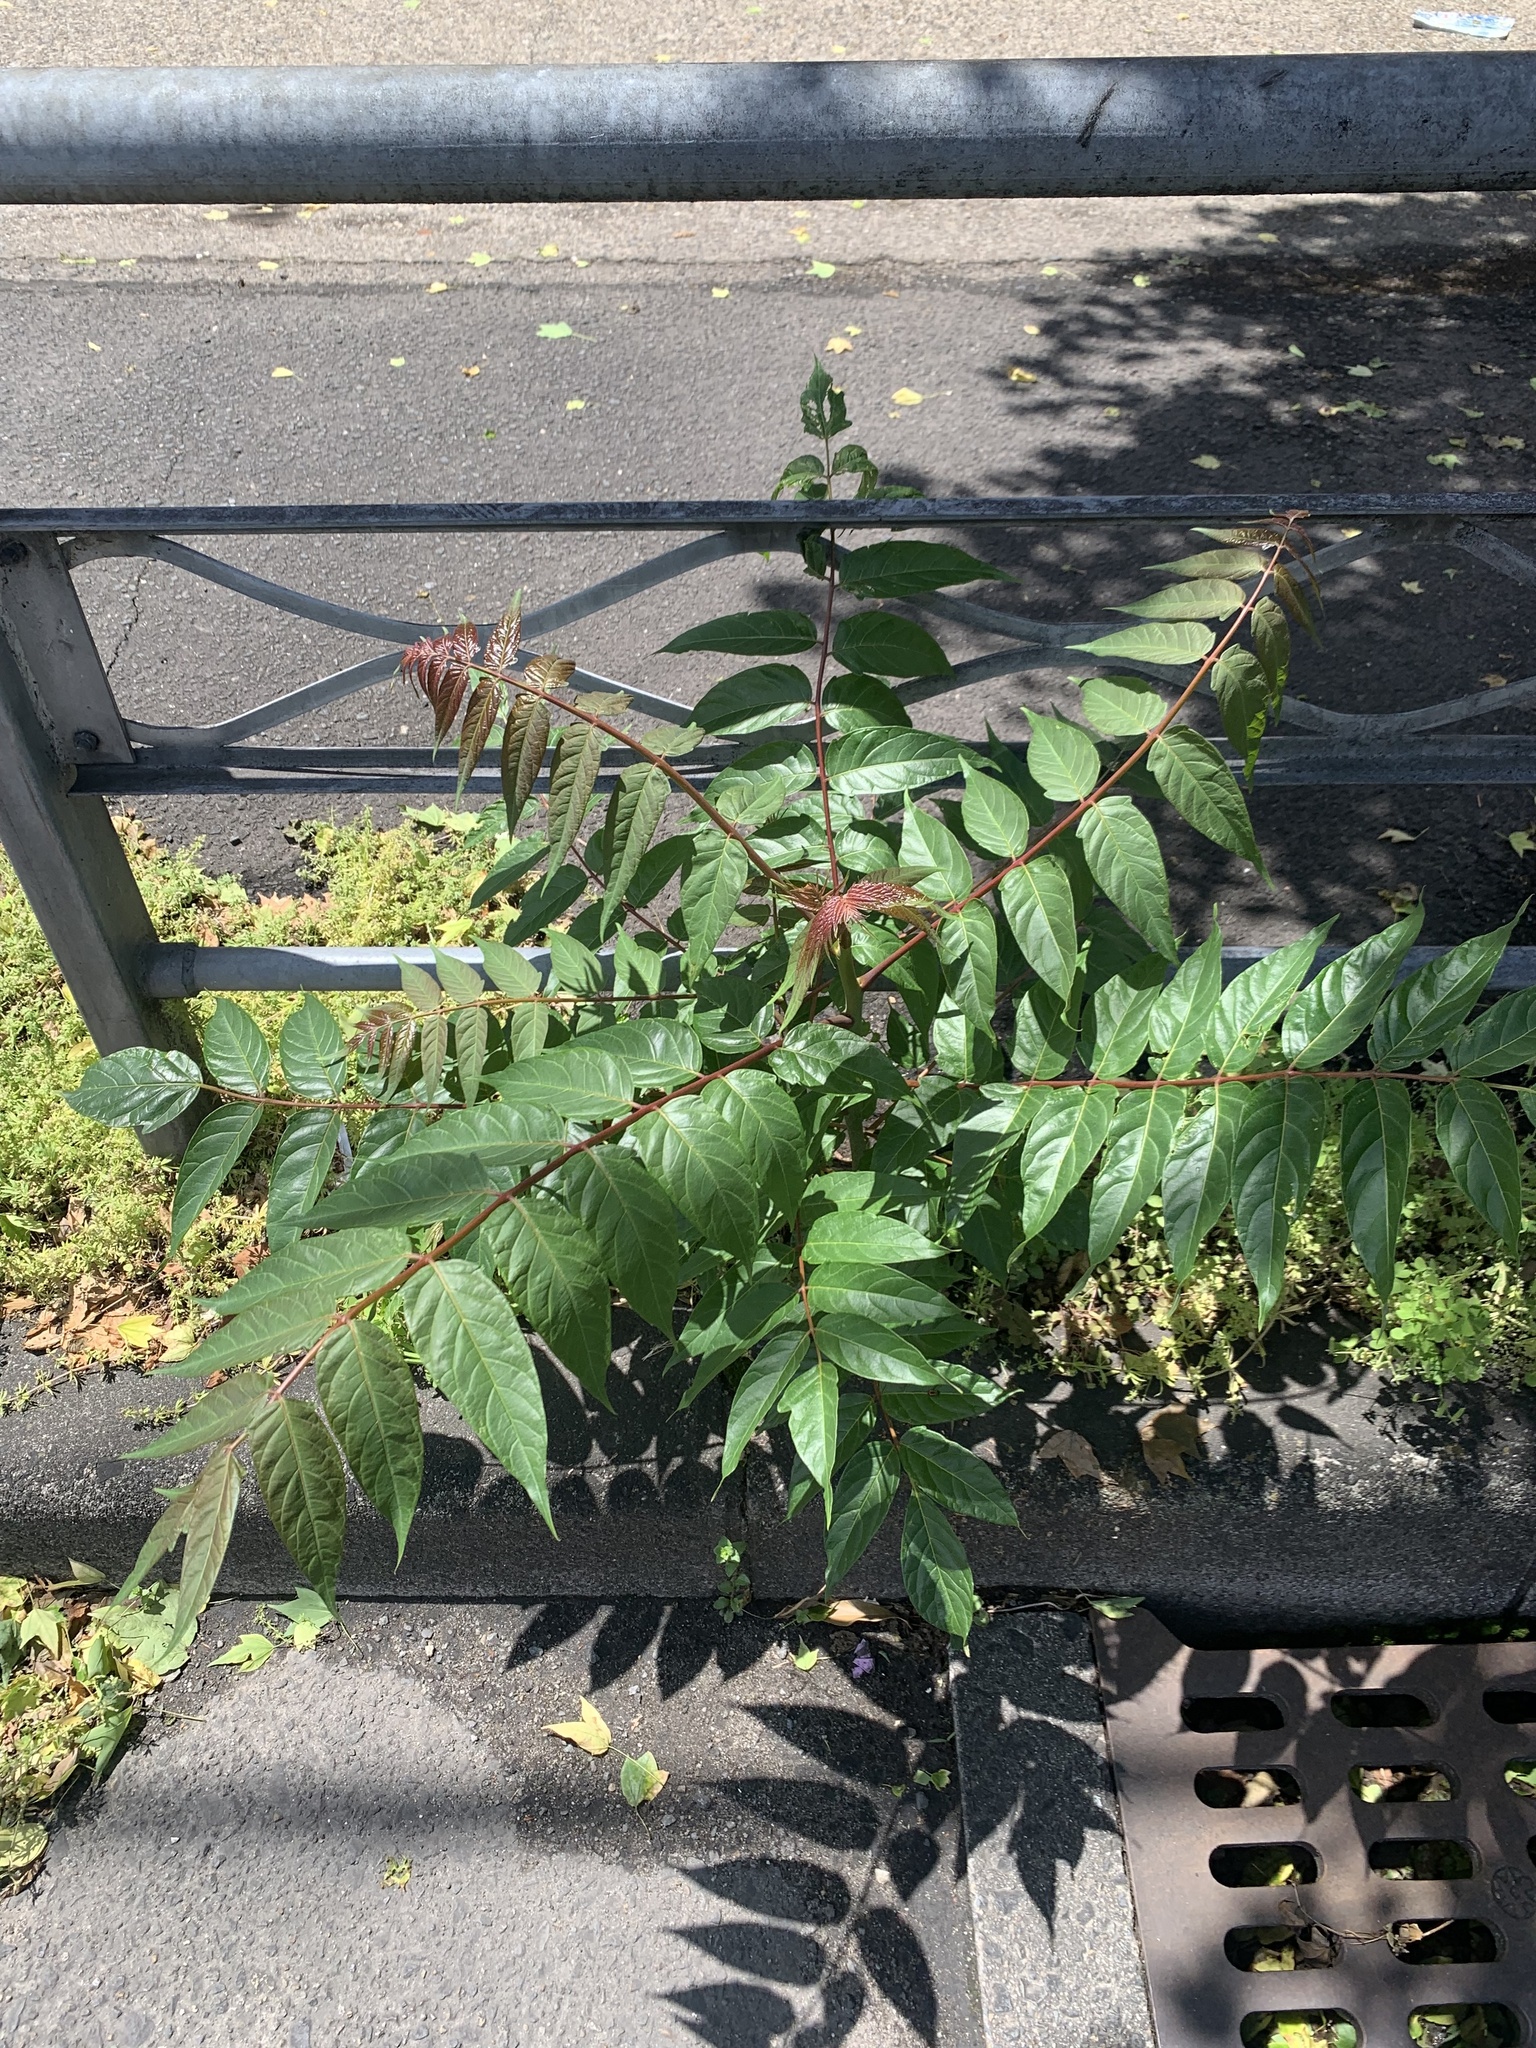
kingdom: Plantae
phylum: Tracheophyta
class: Magnoliopsida
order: Sapindales
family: Simaroubaceae
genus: Ailanthus
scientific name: Ailanthus altissima
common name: Tree-of-heaven
